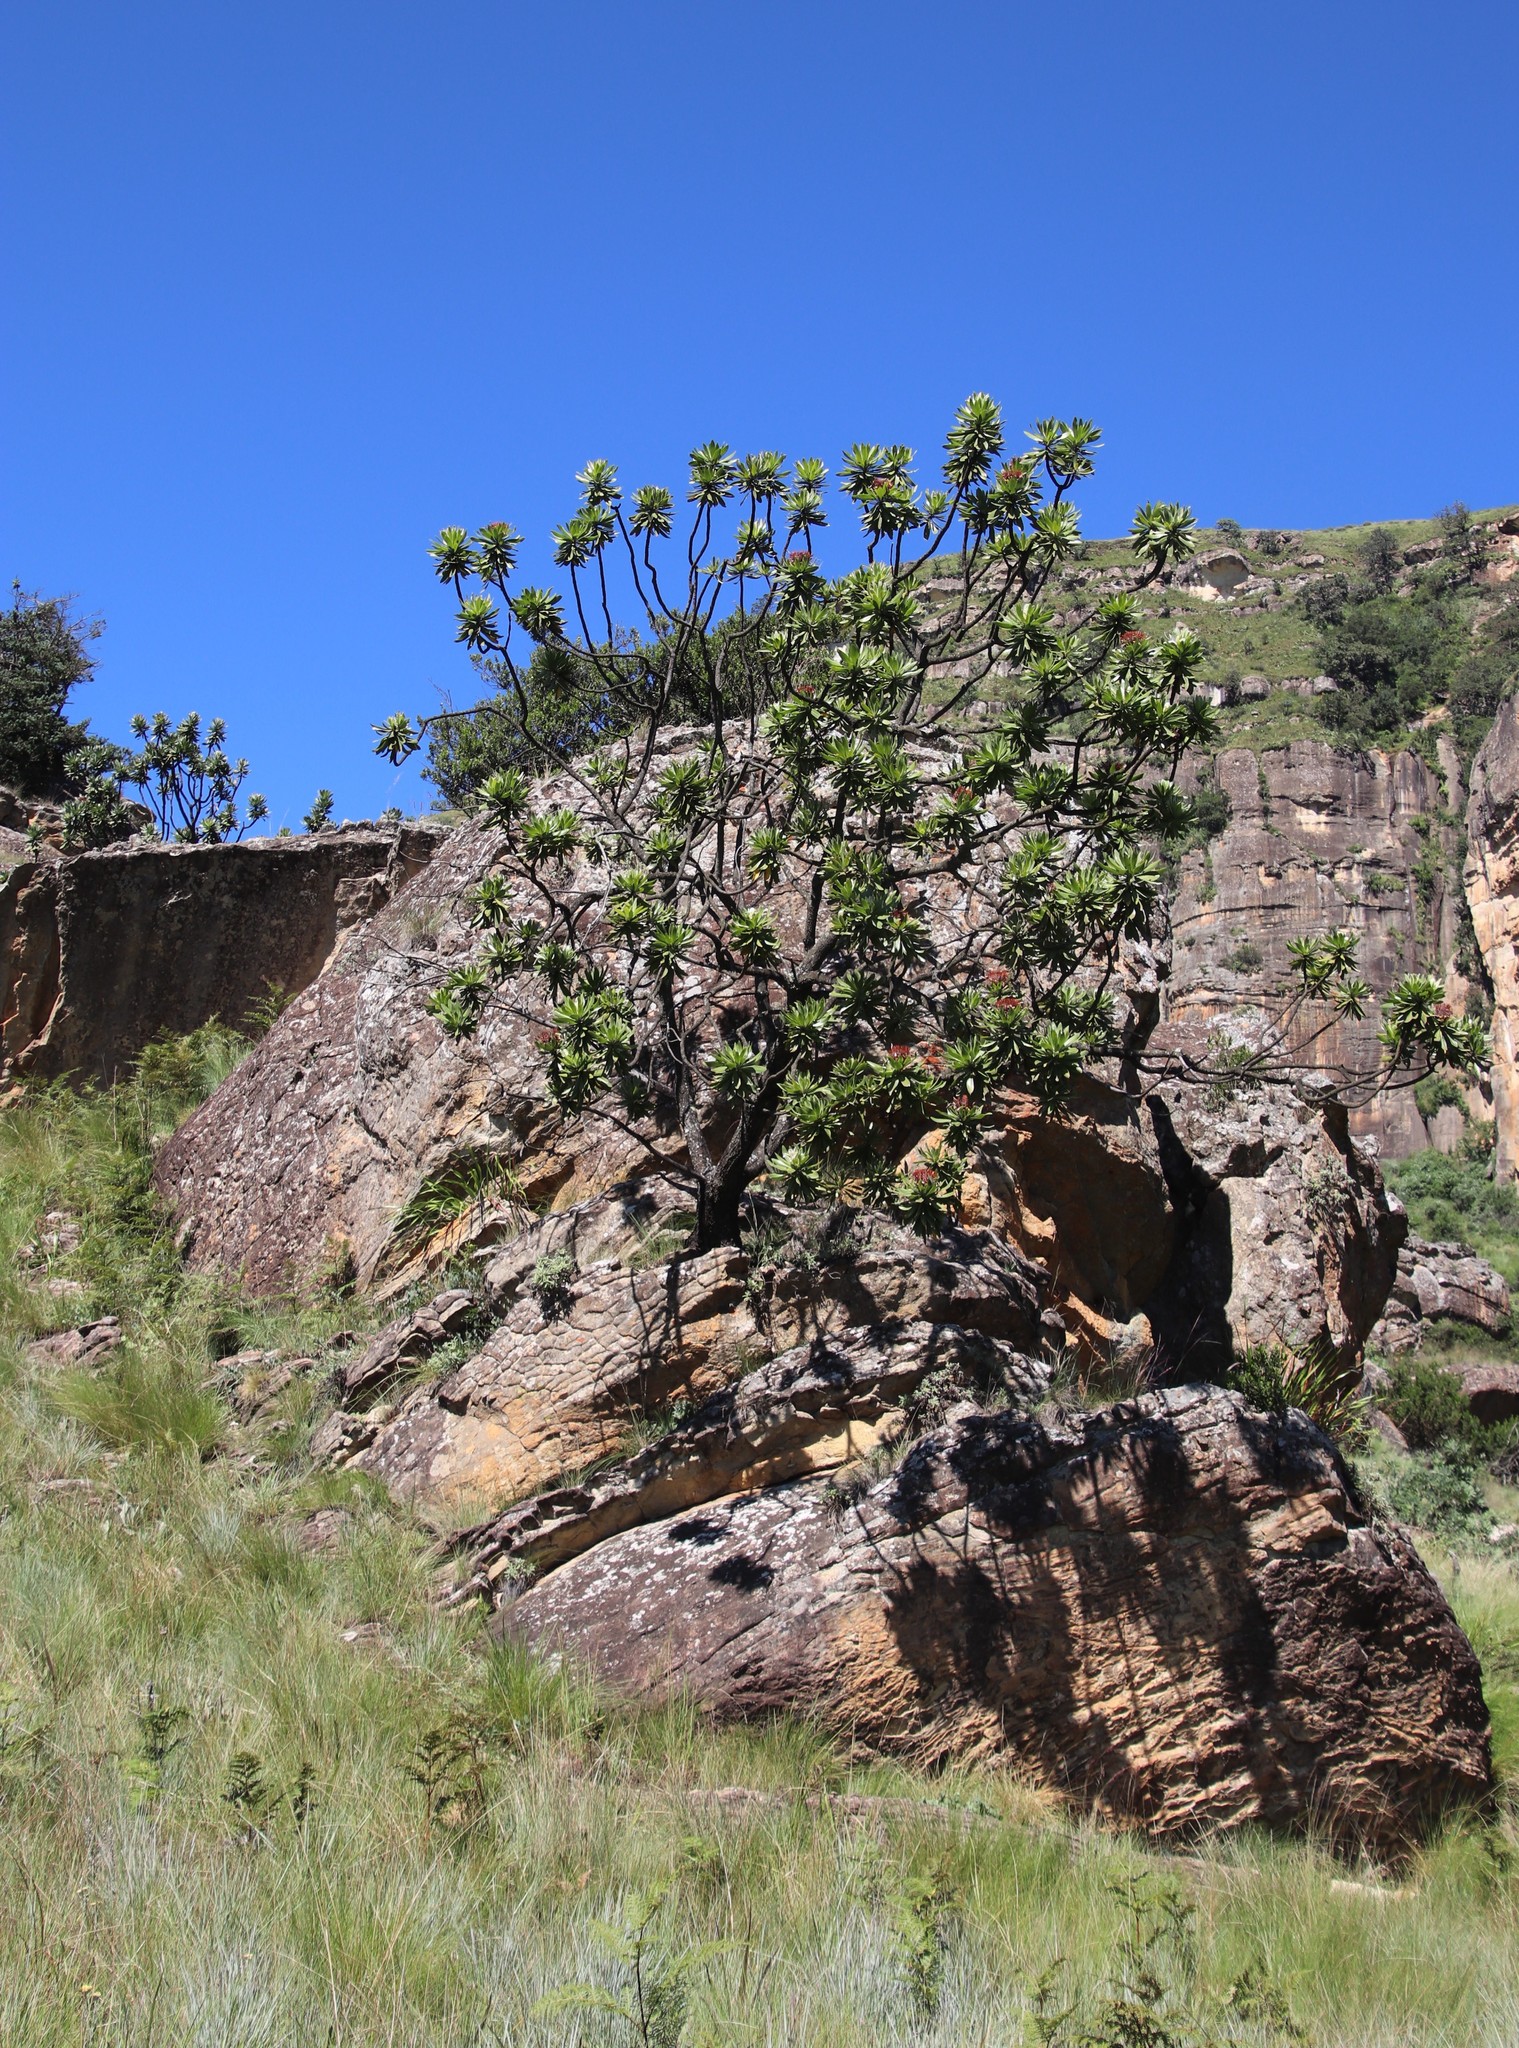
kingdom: Plantae
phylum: Tracheophyta
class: Magnoliopsida
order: Proteales
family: Proteaceae
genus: Protea
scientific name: Protea roupelliae
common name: Silver sugarbush
